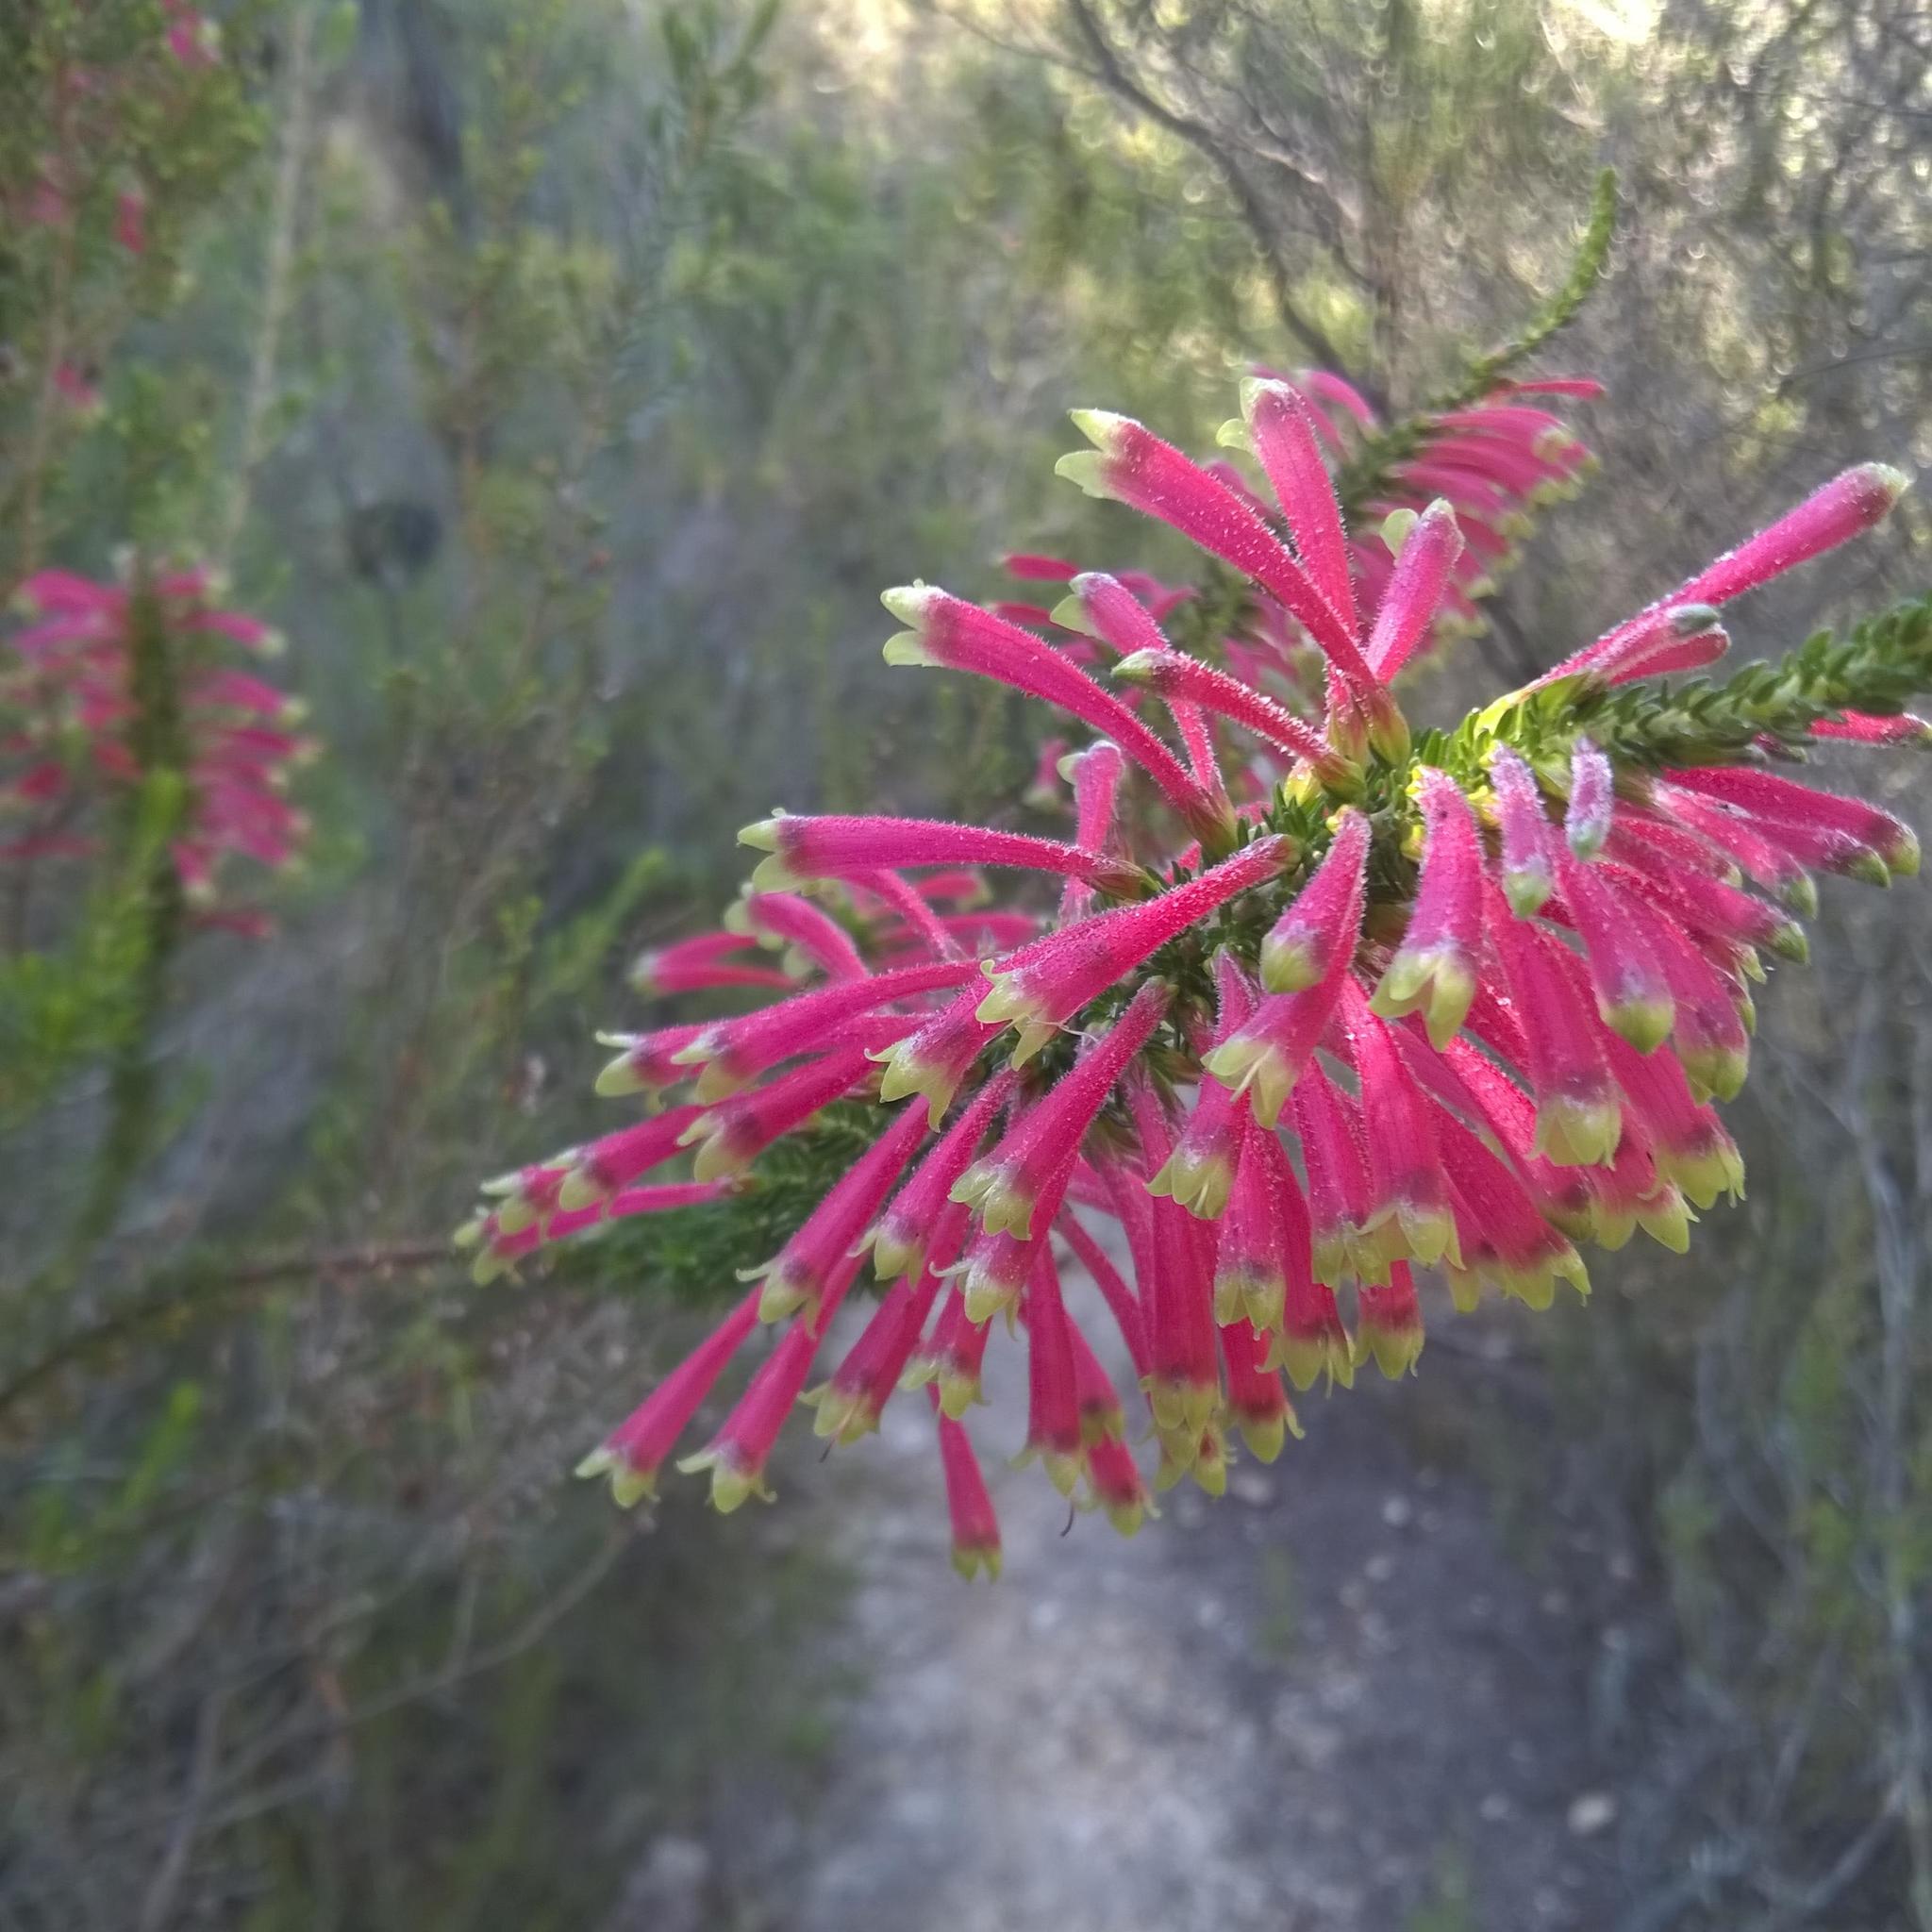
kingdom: Plantae
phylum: Tracheophyta
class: Magnoliopsida
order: Ericales
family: Ericaceae
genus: Erica
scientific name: Erica densifolia
